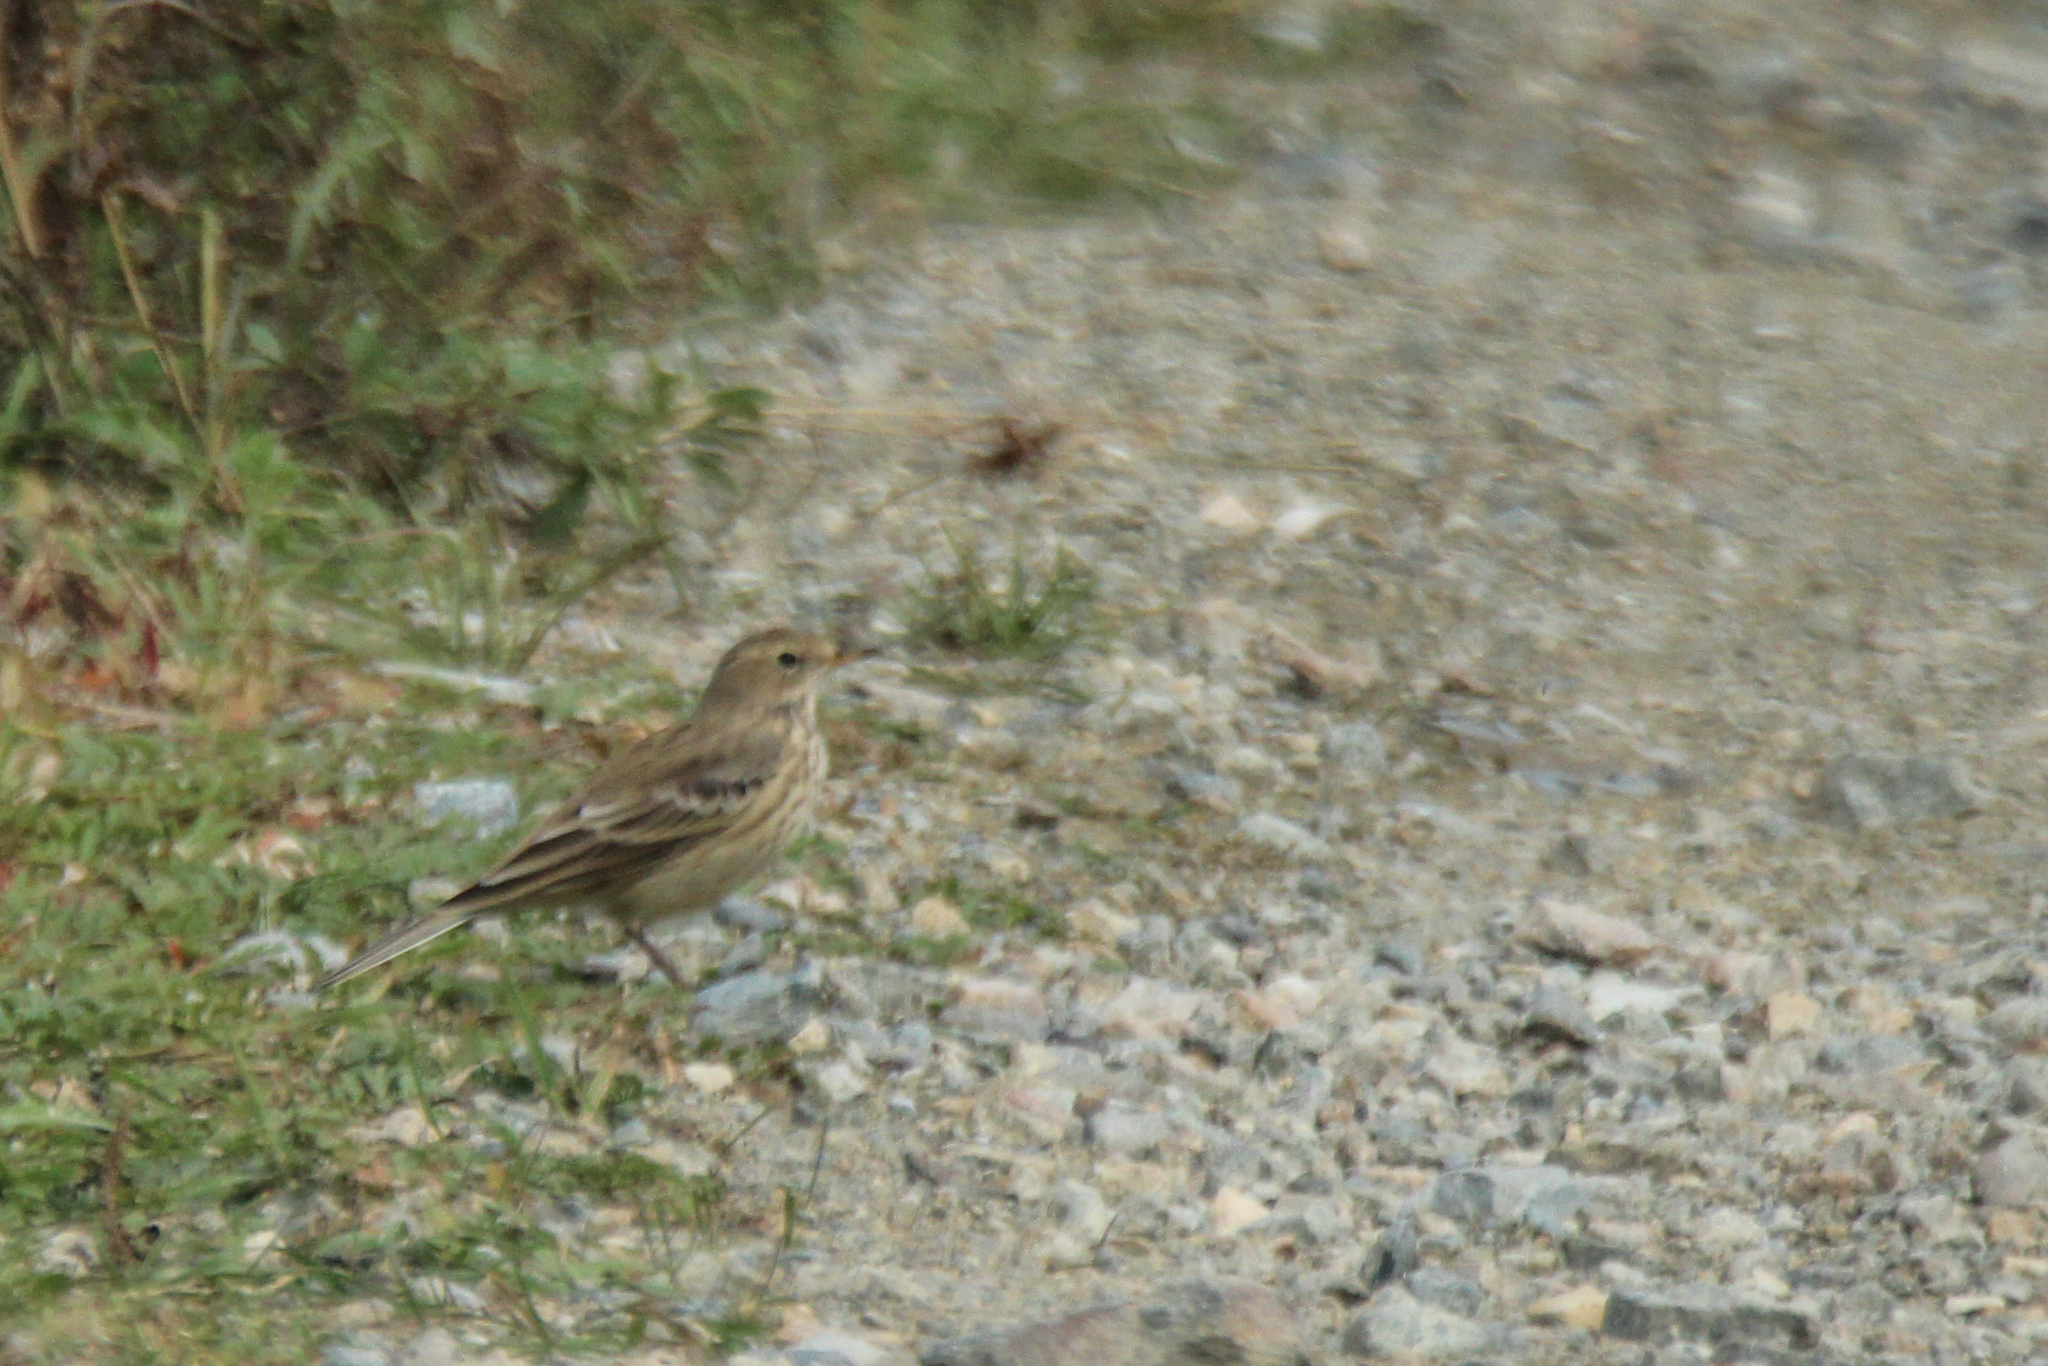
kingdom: Animalia
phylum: Chordata
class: Aves
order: Passeriformes
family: Motacillidae
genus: Anthus
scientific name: Anthus spinoletta
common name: Water pipit
